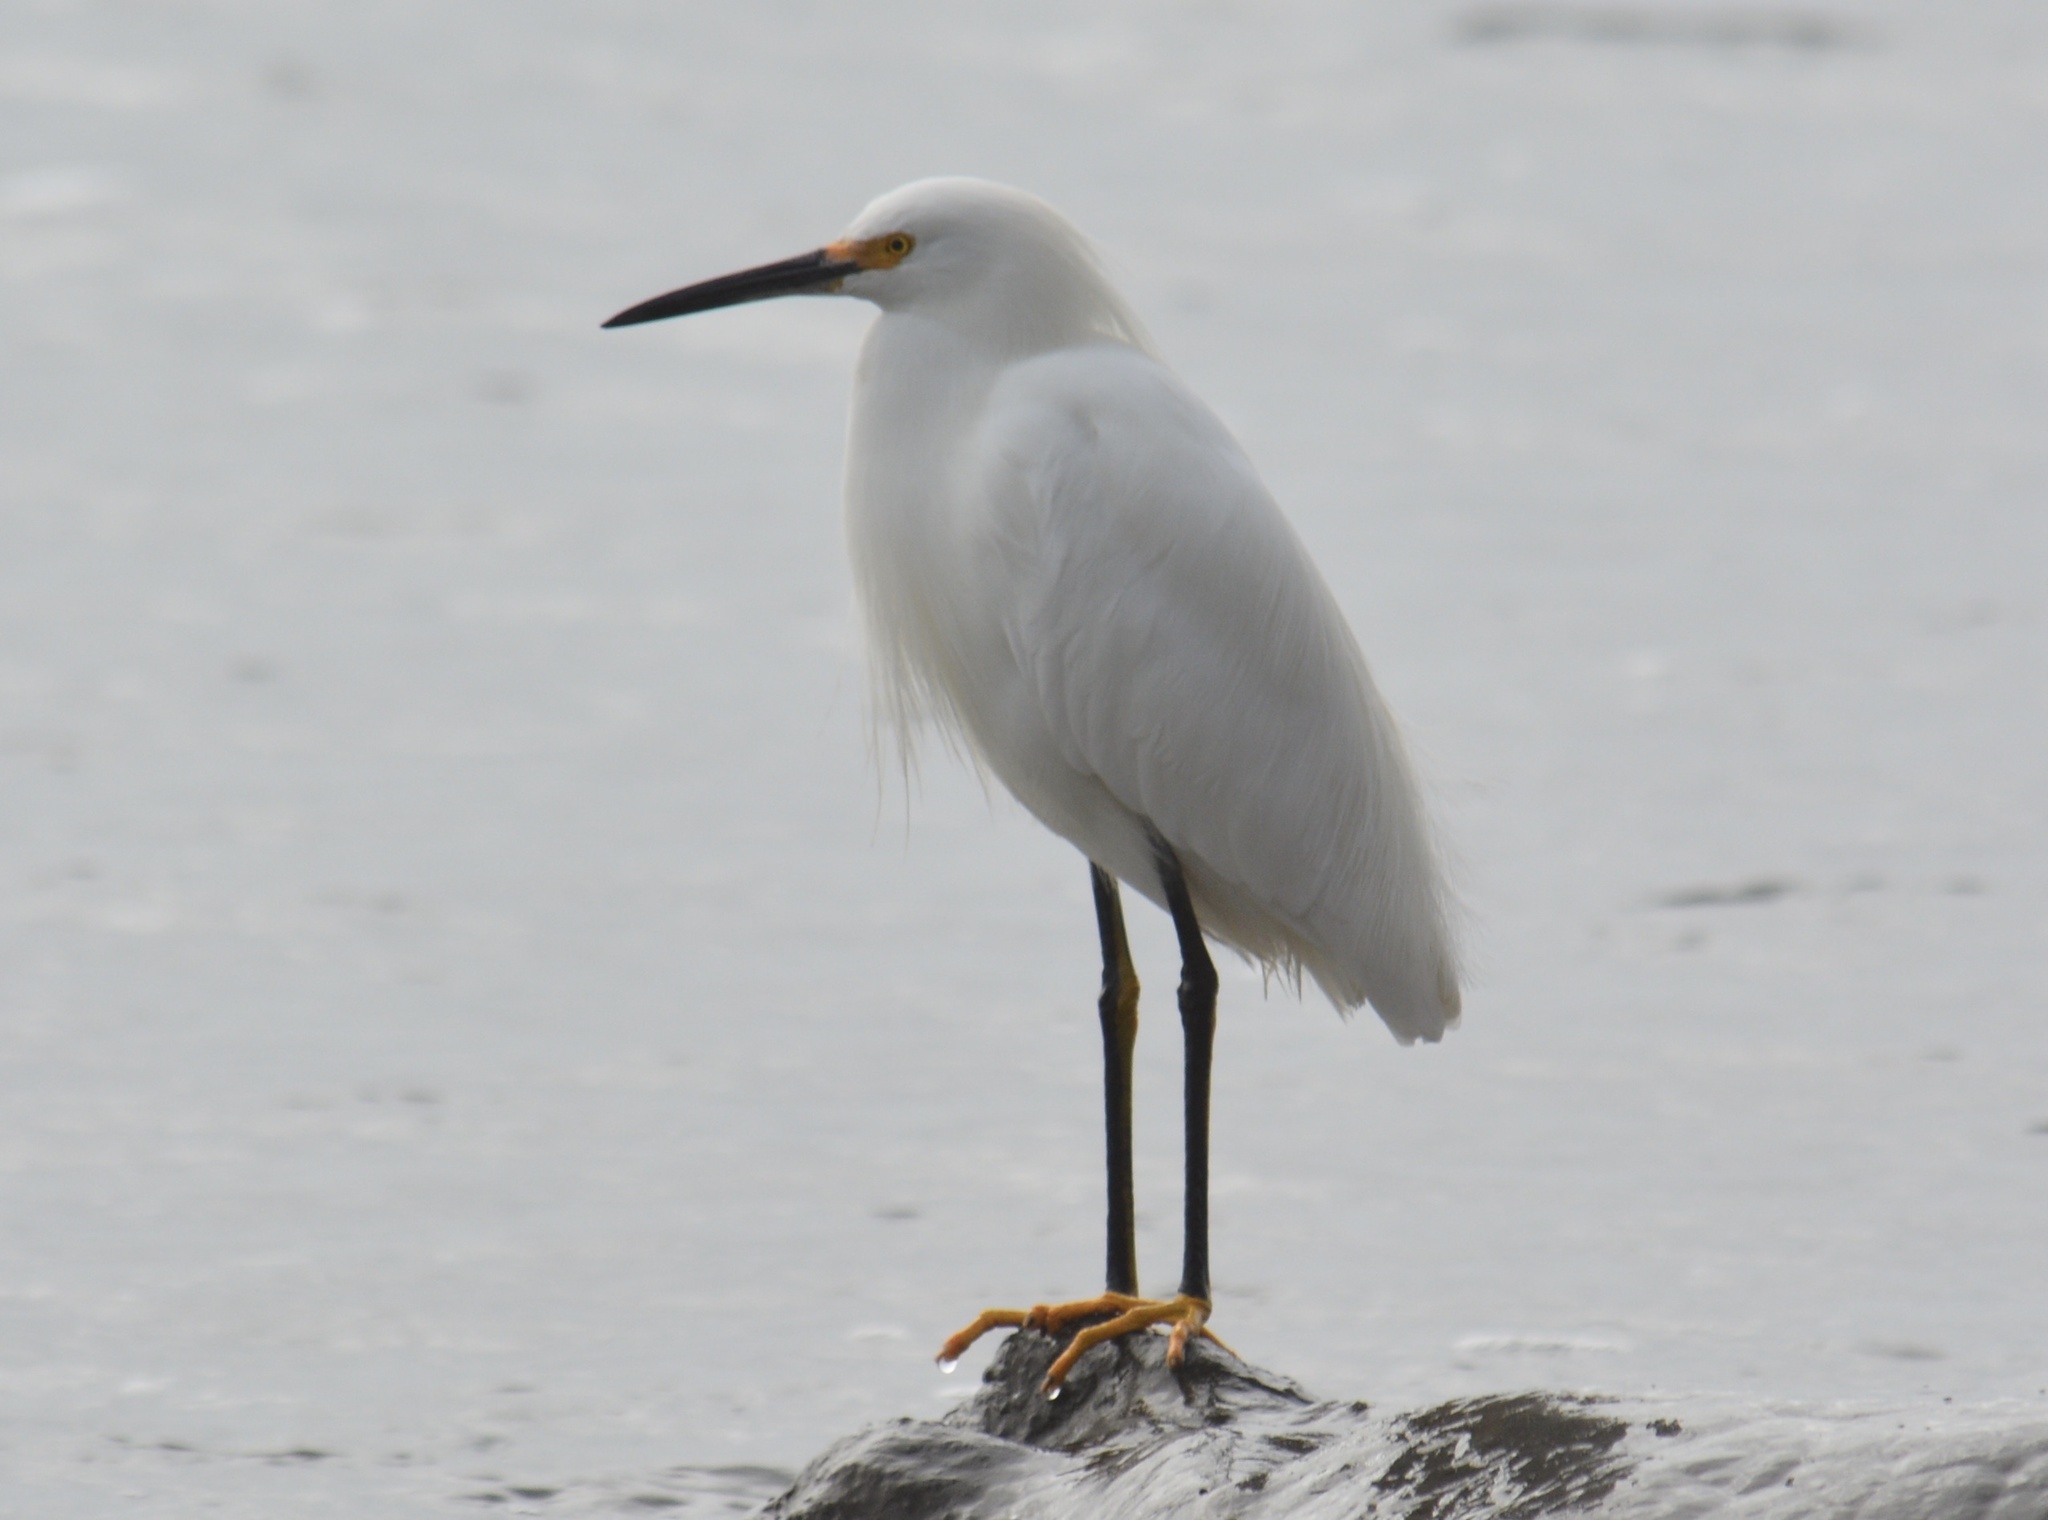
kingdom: Animalia
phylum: Chordata
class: Aves
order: Pelecaniformes
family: Ardeidae
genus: Egretta
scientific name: Egretta thula
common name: Snowy egret
